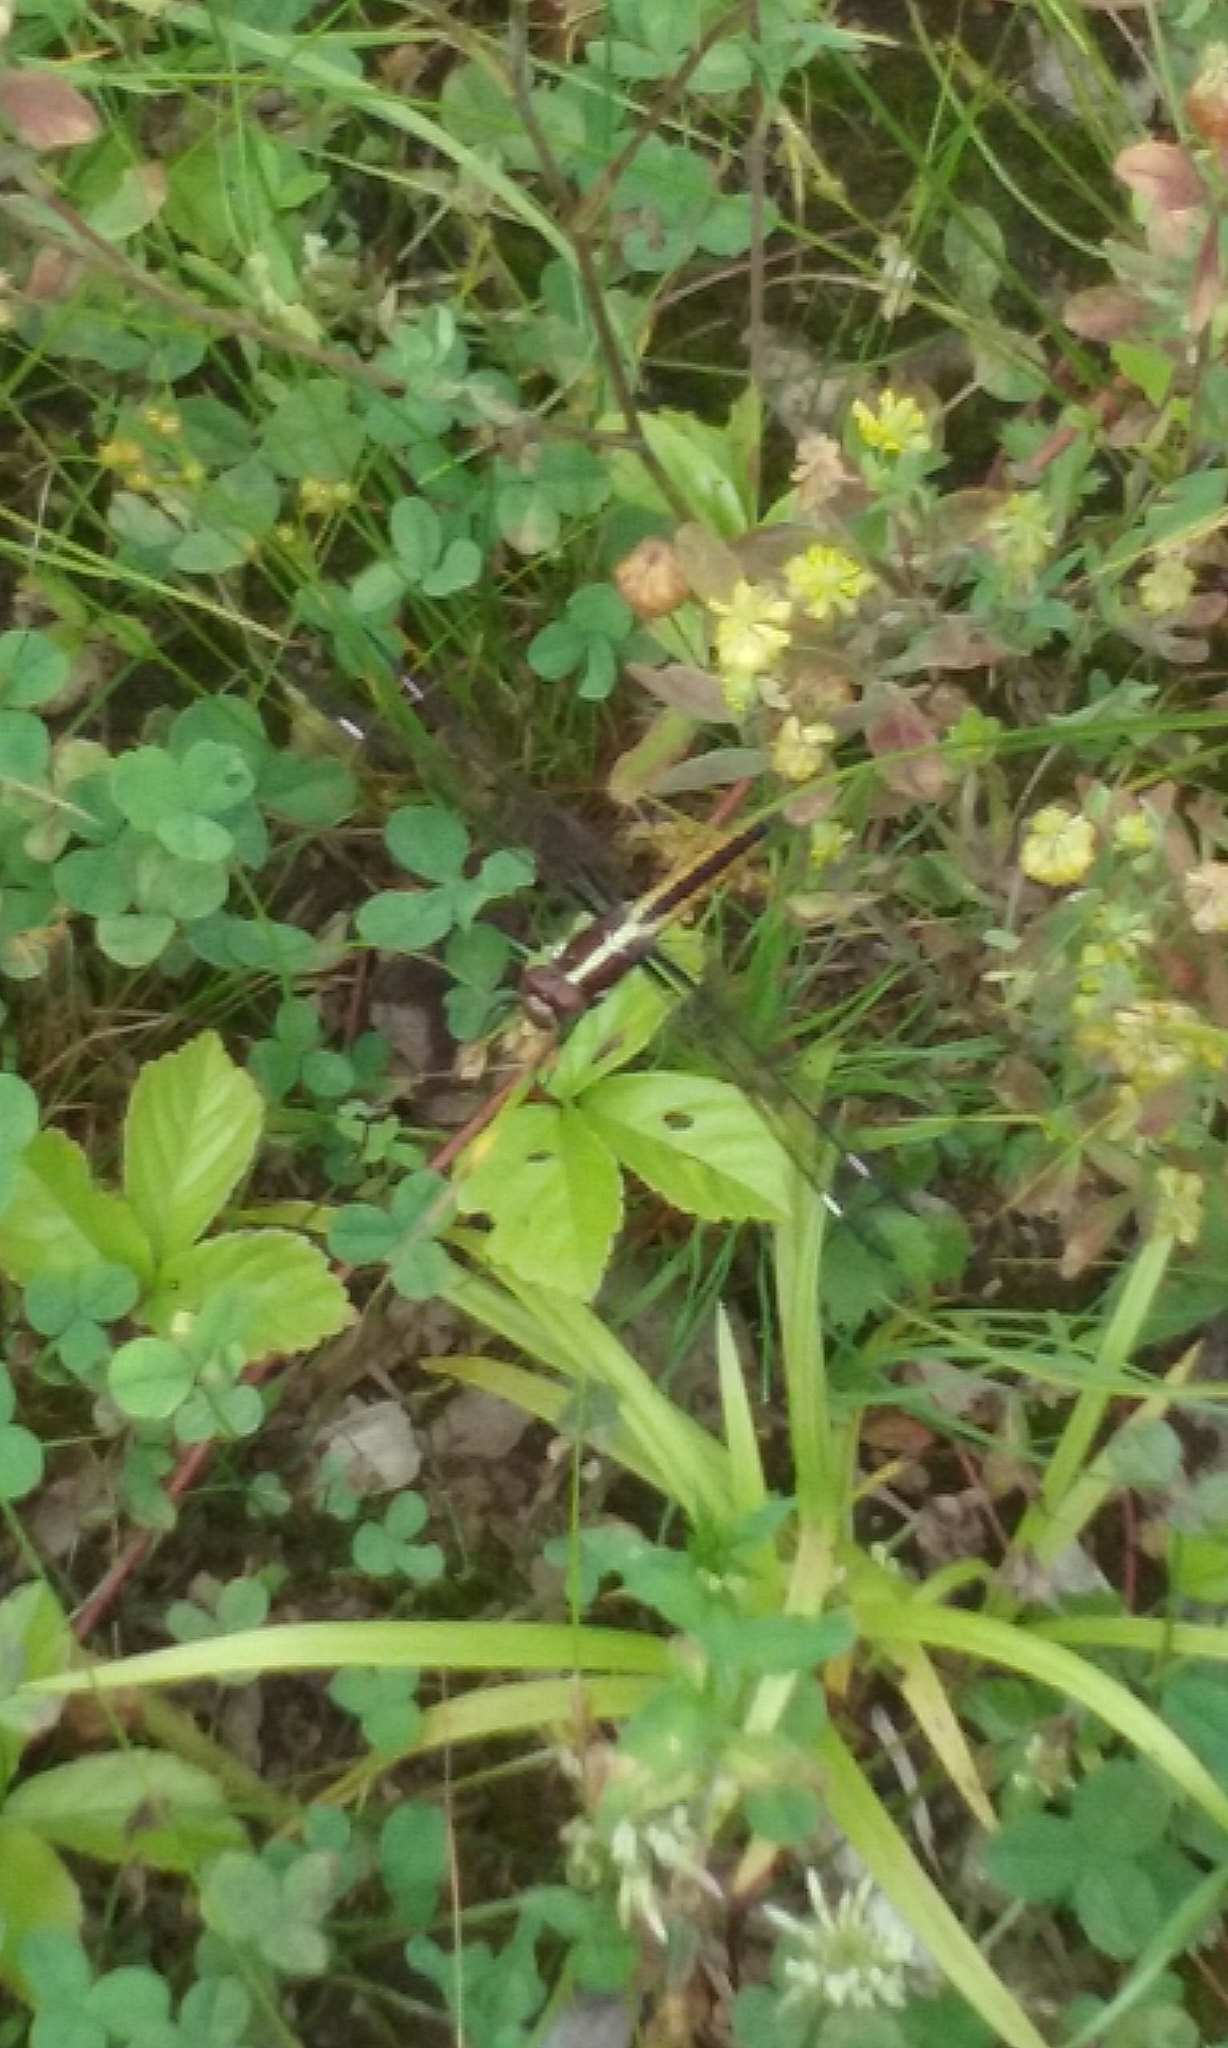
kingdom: Animalia
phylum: Arthropoda
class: Insecta
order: Odonata
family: Libellulidae
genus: Libellula
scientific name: Libellula cyanea
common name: Spangled skimmer
